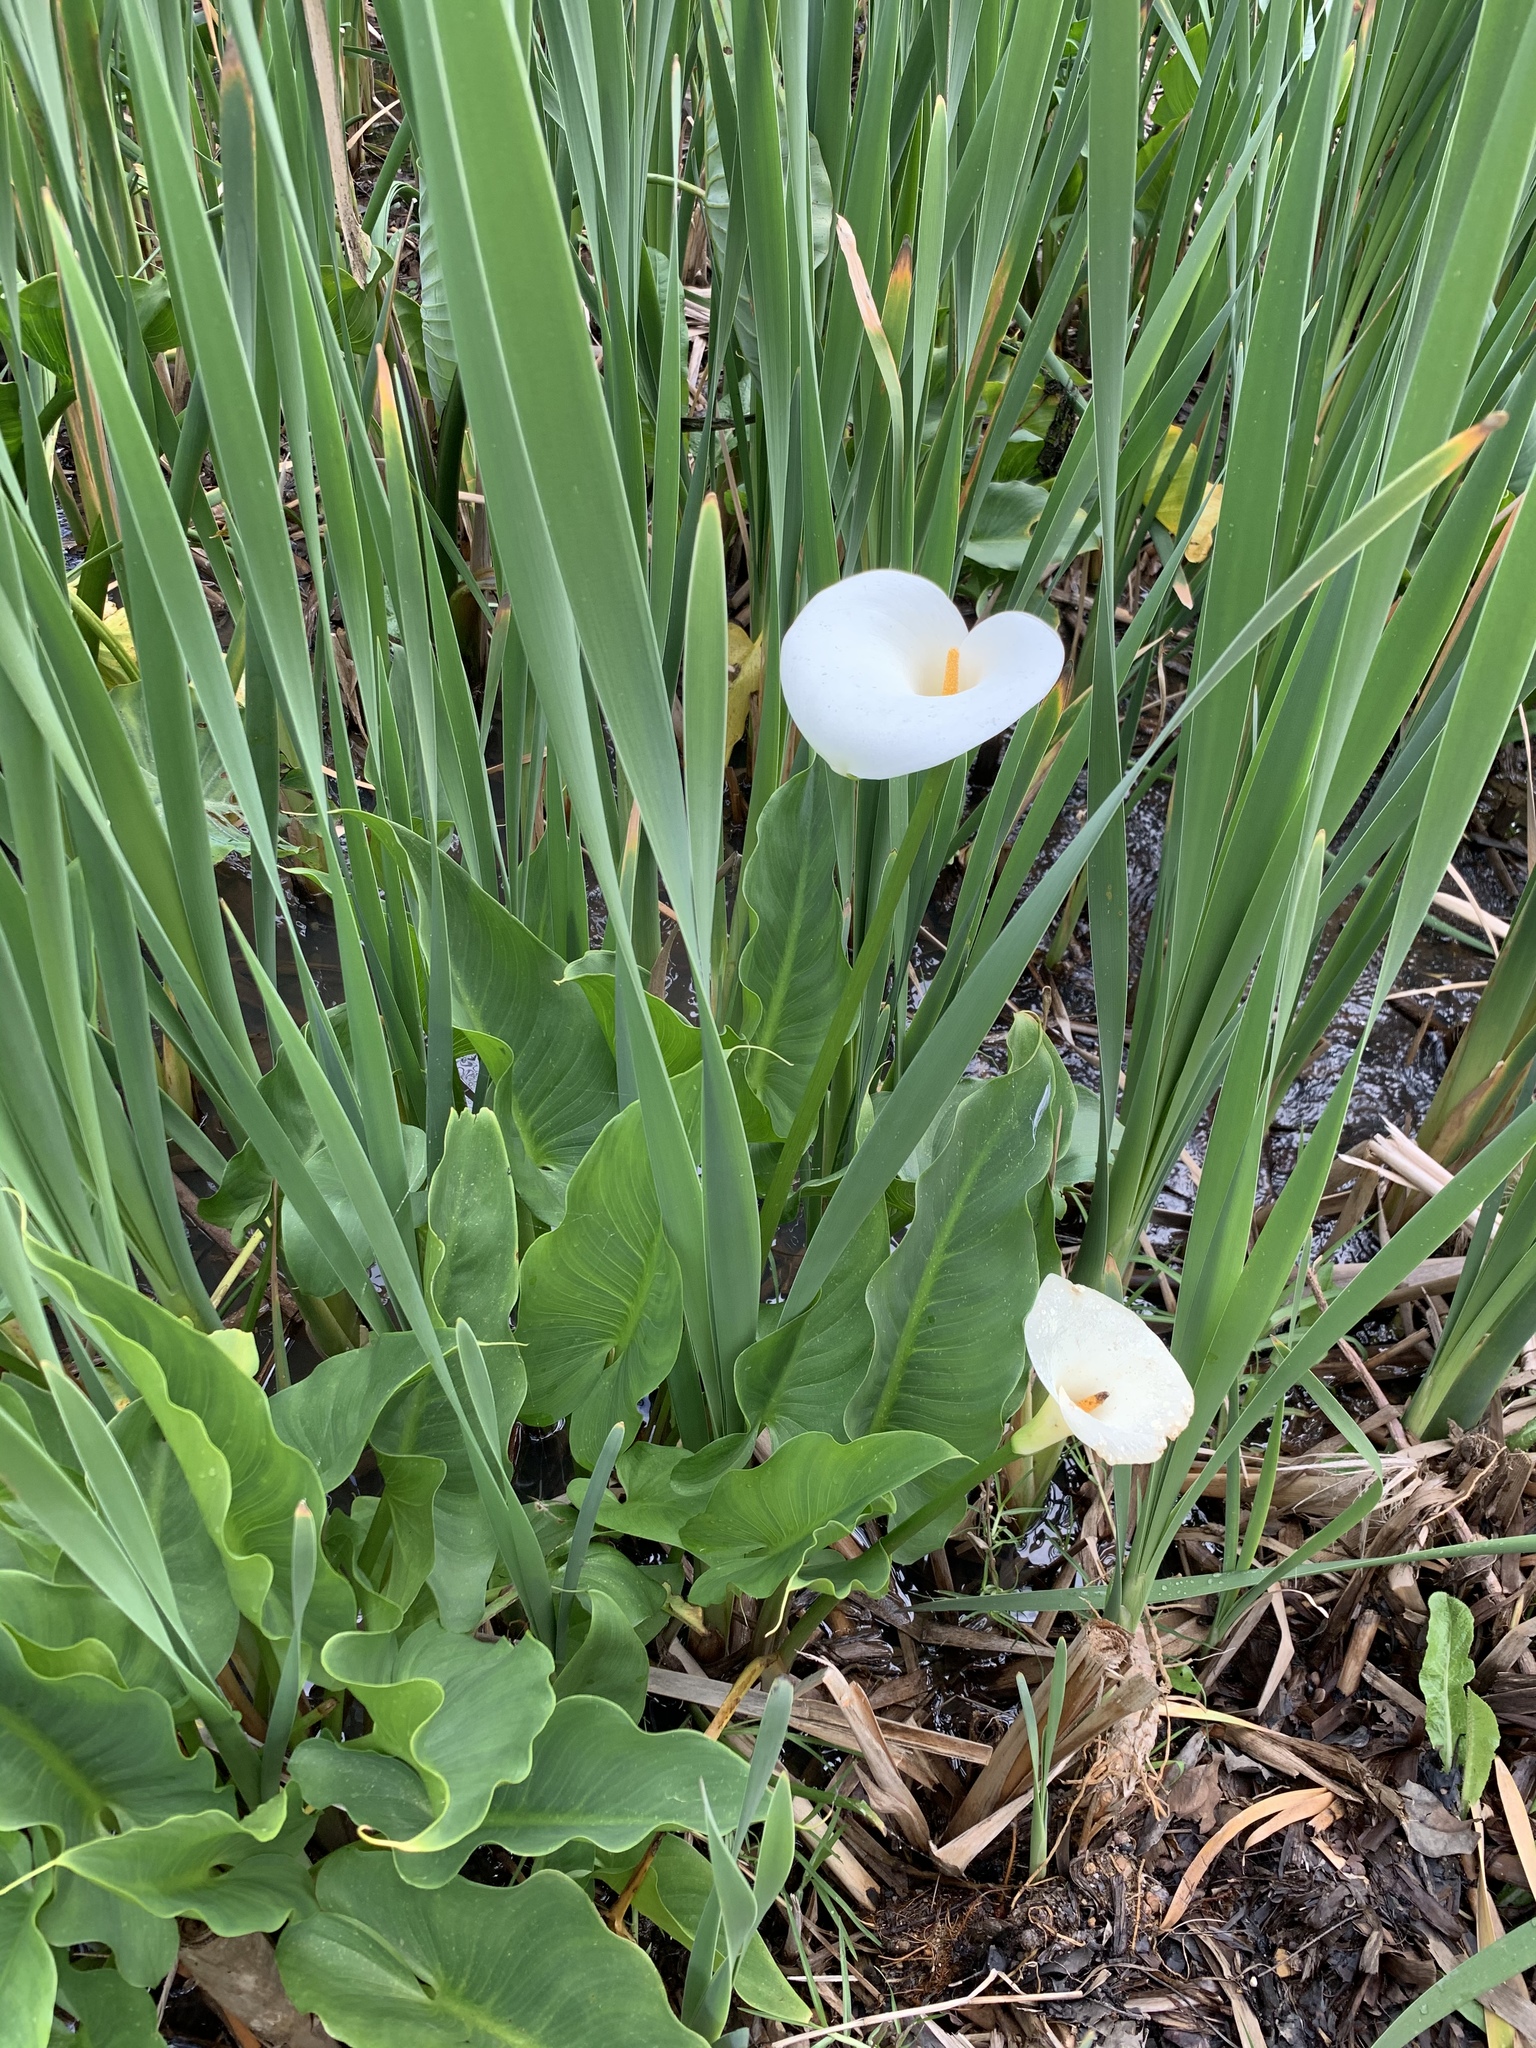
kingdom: Plantae
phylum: Tracheophyta
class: Liliopsida
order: Alismatales
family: Araceae
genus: Zantedeschia
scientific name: Zantedeschia aethiopica
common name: Altar-lily
